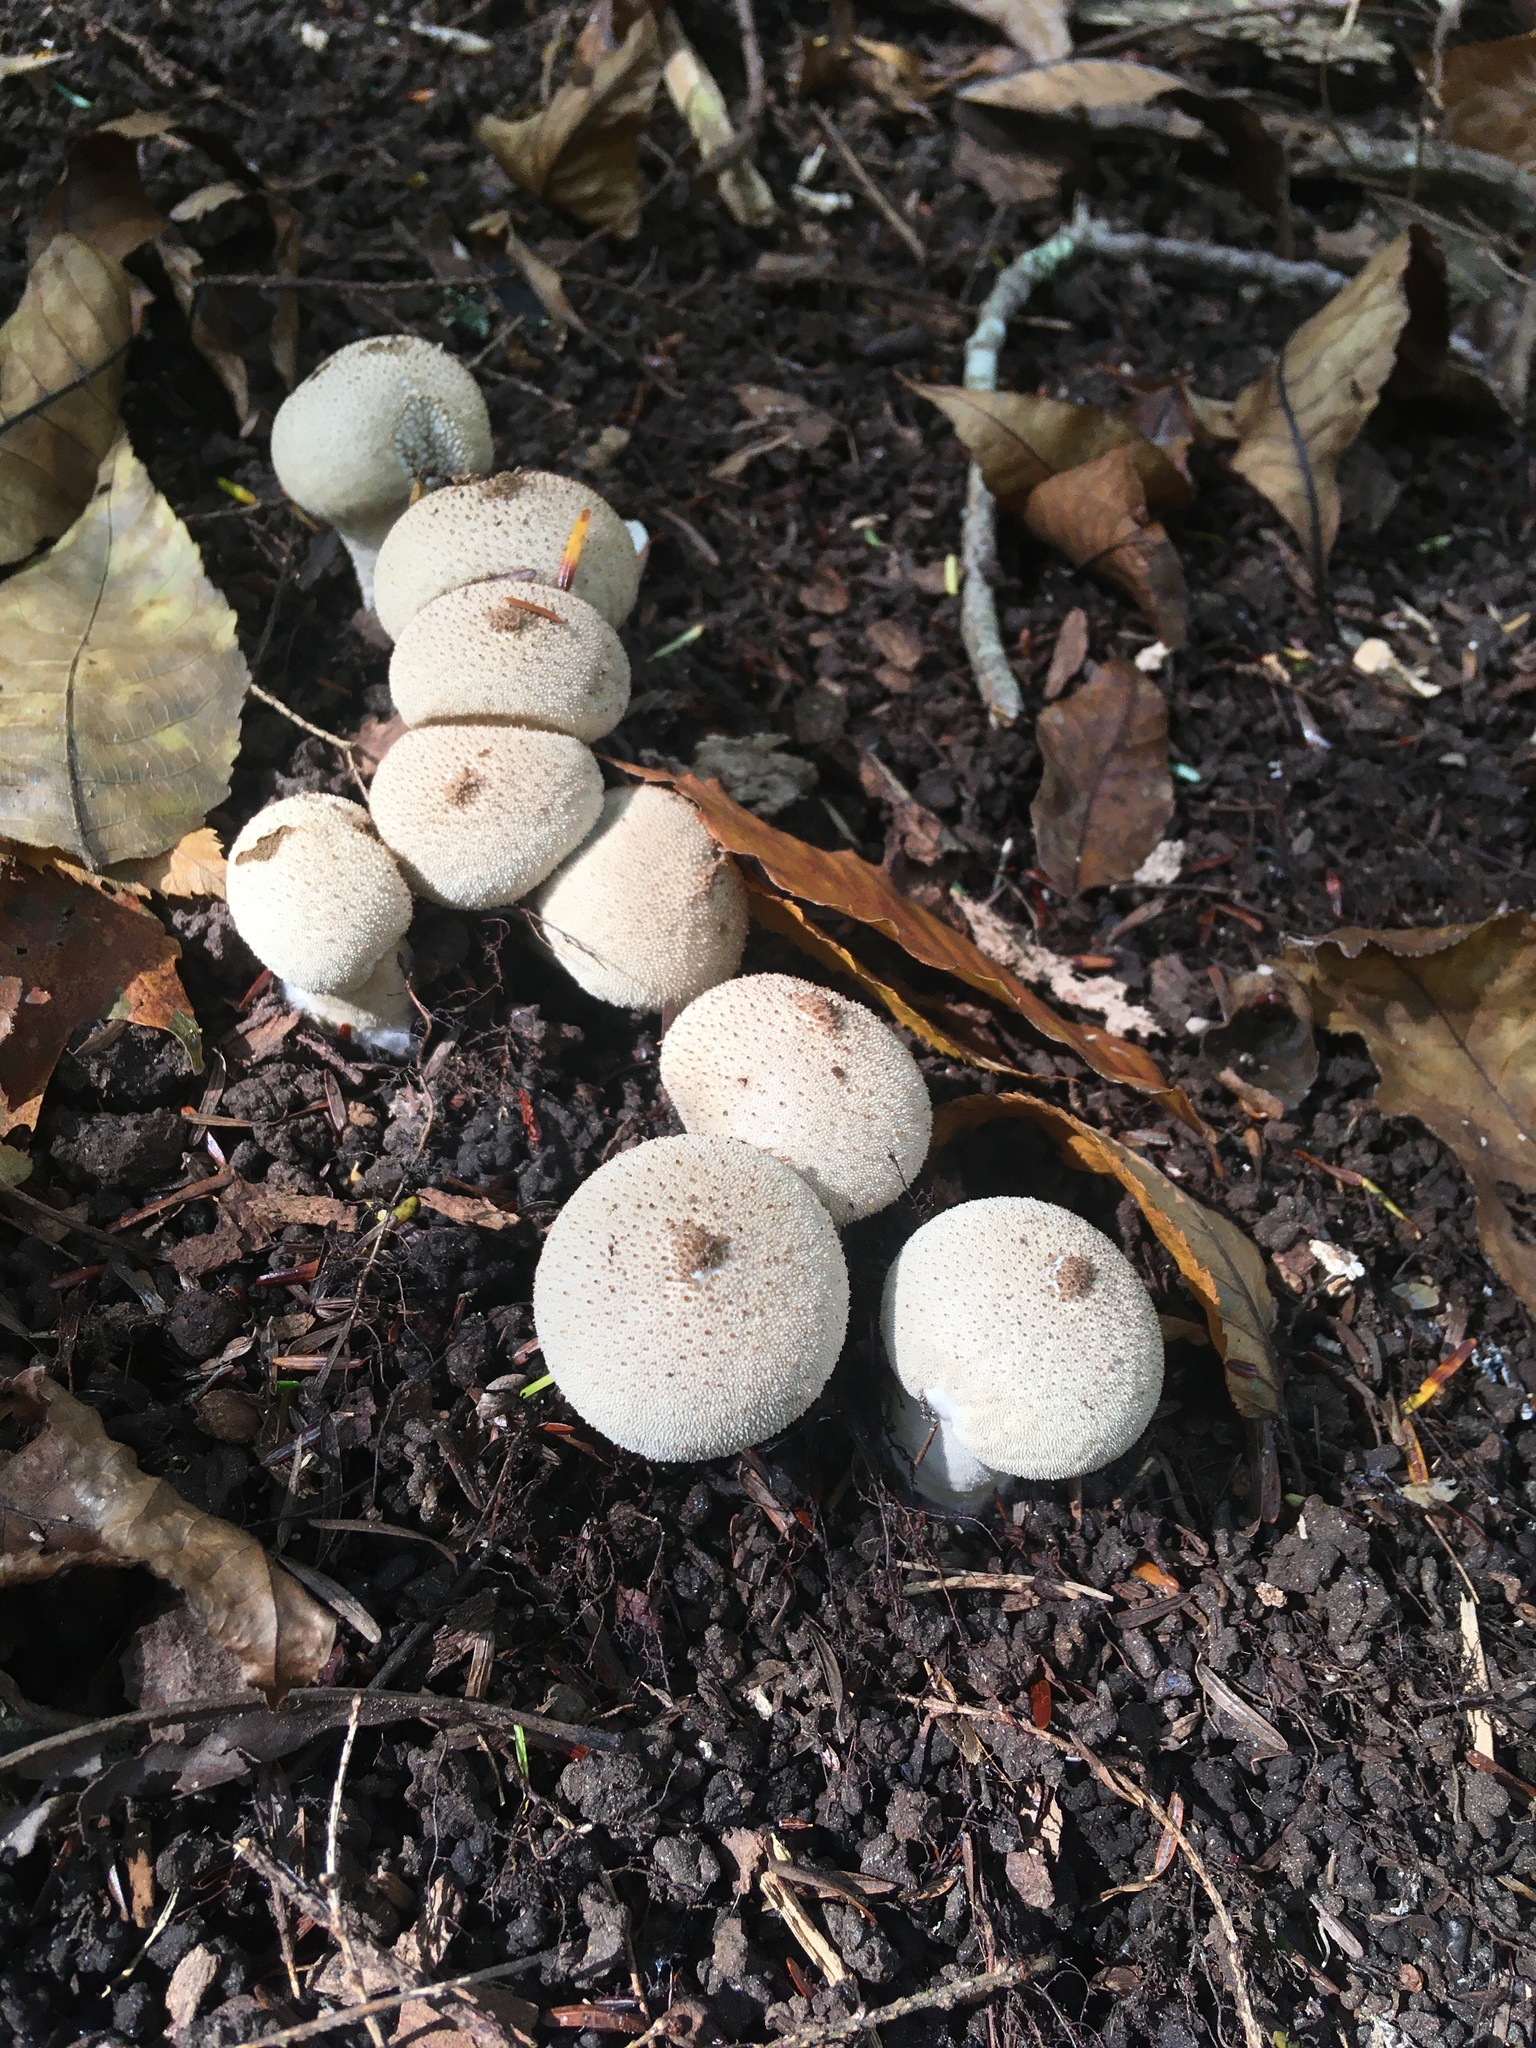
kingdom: Fungi
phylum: Basidiomycota
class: Agaricomycetes
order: Agaricales
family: Lycoperdaceae
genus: Lycoperdon
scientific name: Lycoperdon perlatum
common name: Common puffball
